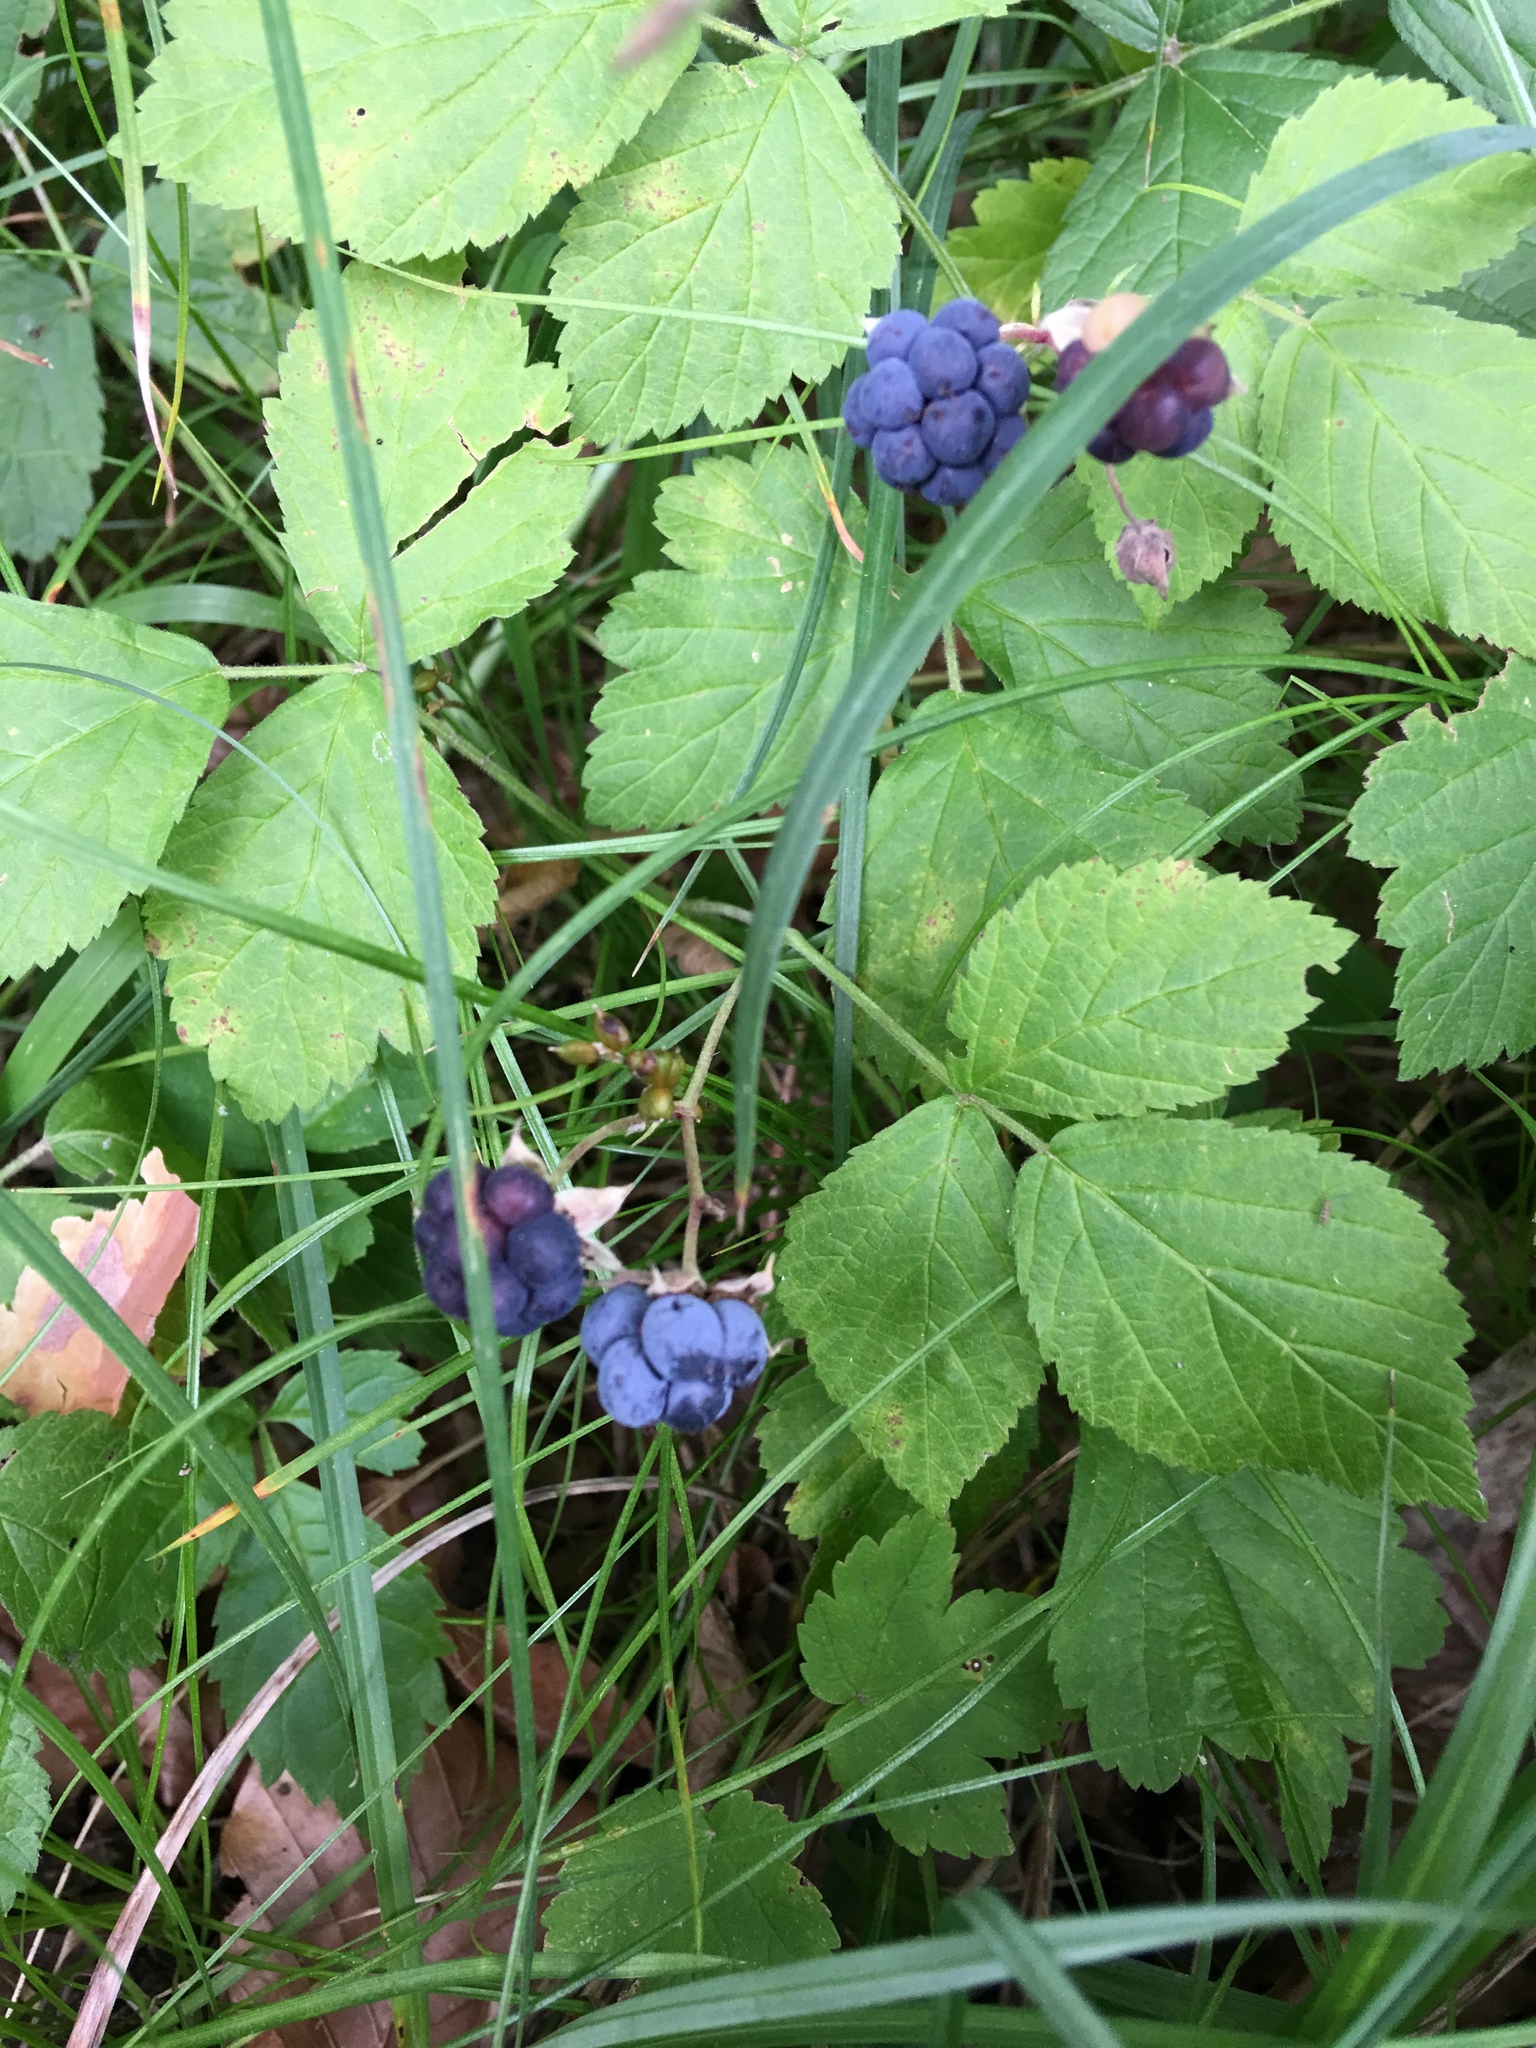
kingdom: Plantae
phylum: Tracheophyta
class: Magnoliopsida
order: Rosales
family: Rosaceae
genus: Rubus
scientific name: Rubus caesius
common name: Dewberry
